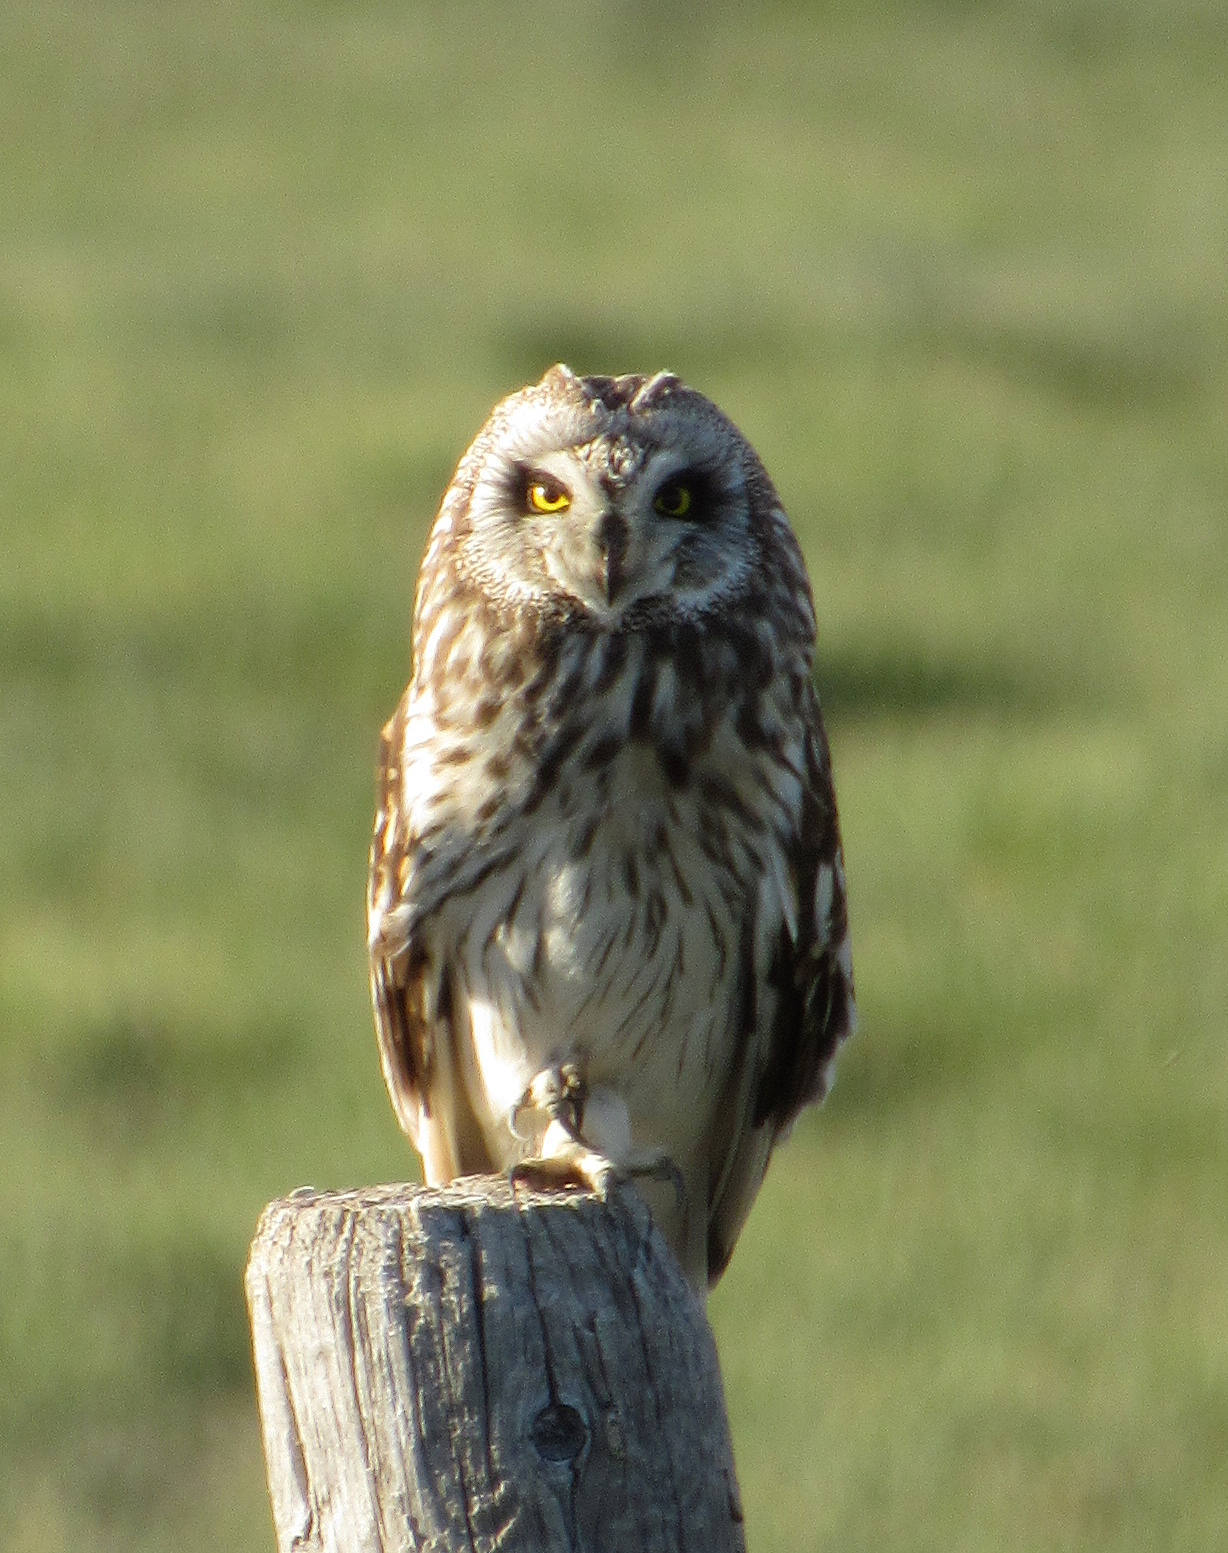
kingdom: Animalia
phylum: Chordata
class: Aves
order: Strigiformes
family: Strigidae
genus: Asio
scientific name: Asio flammeus
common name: Short-eared owl
